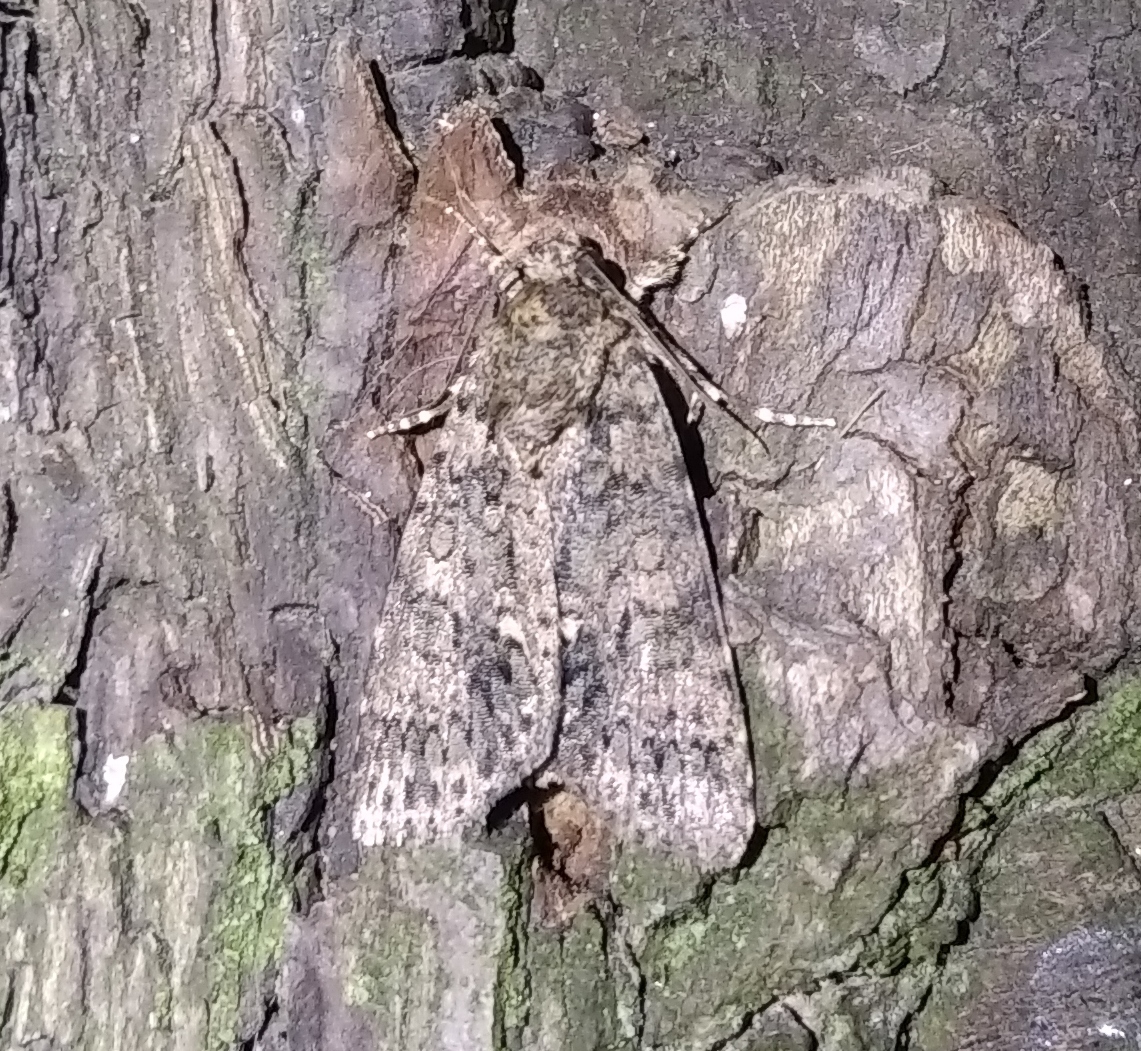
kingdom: Animalia
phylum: Arthropoda
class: Insecta
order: Lepidoptera
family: Noctuidae
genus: Acronicta
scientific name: Acronicta rumicis
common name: Knot grass
